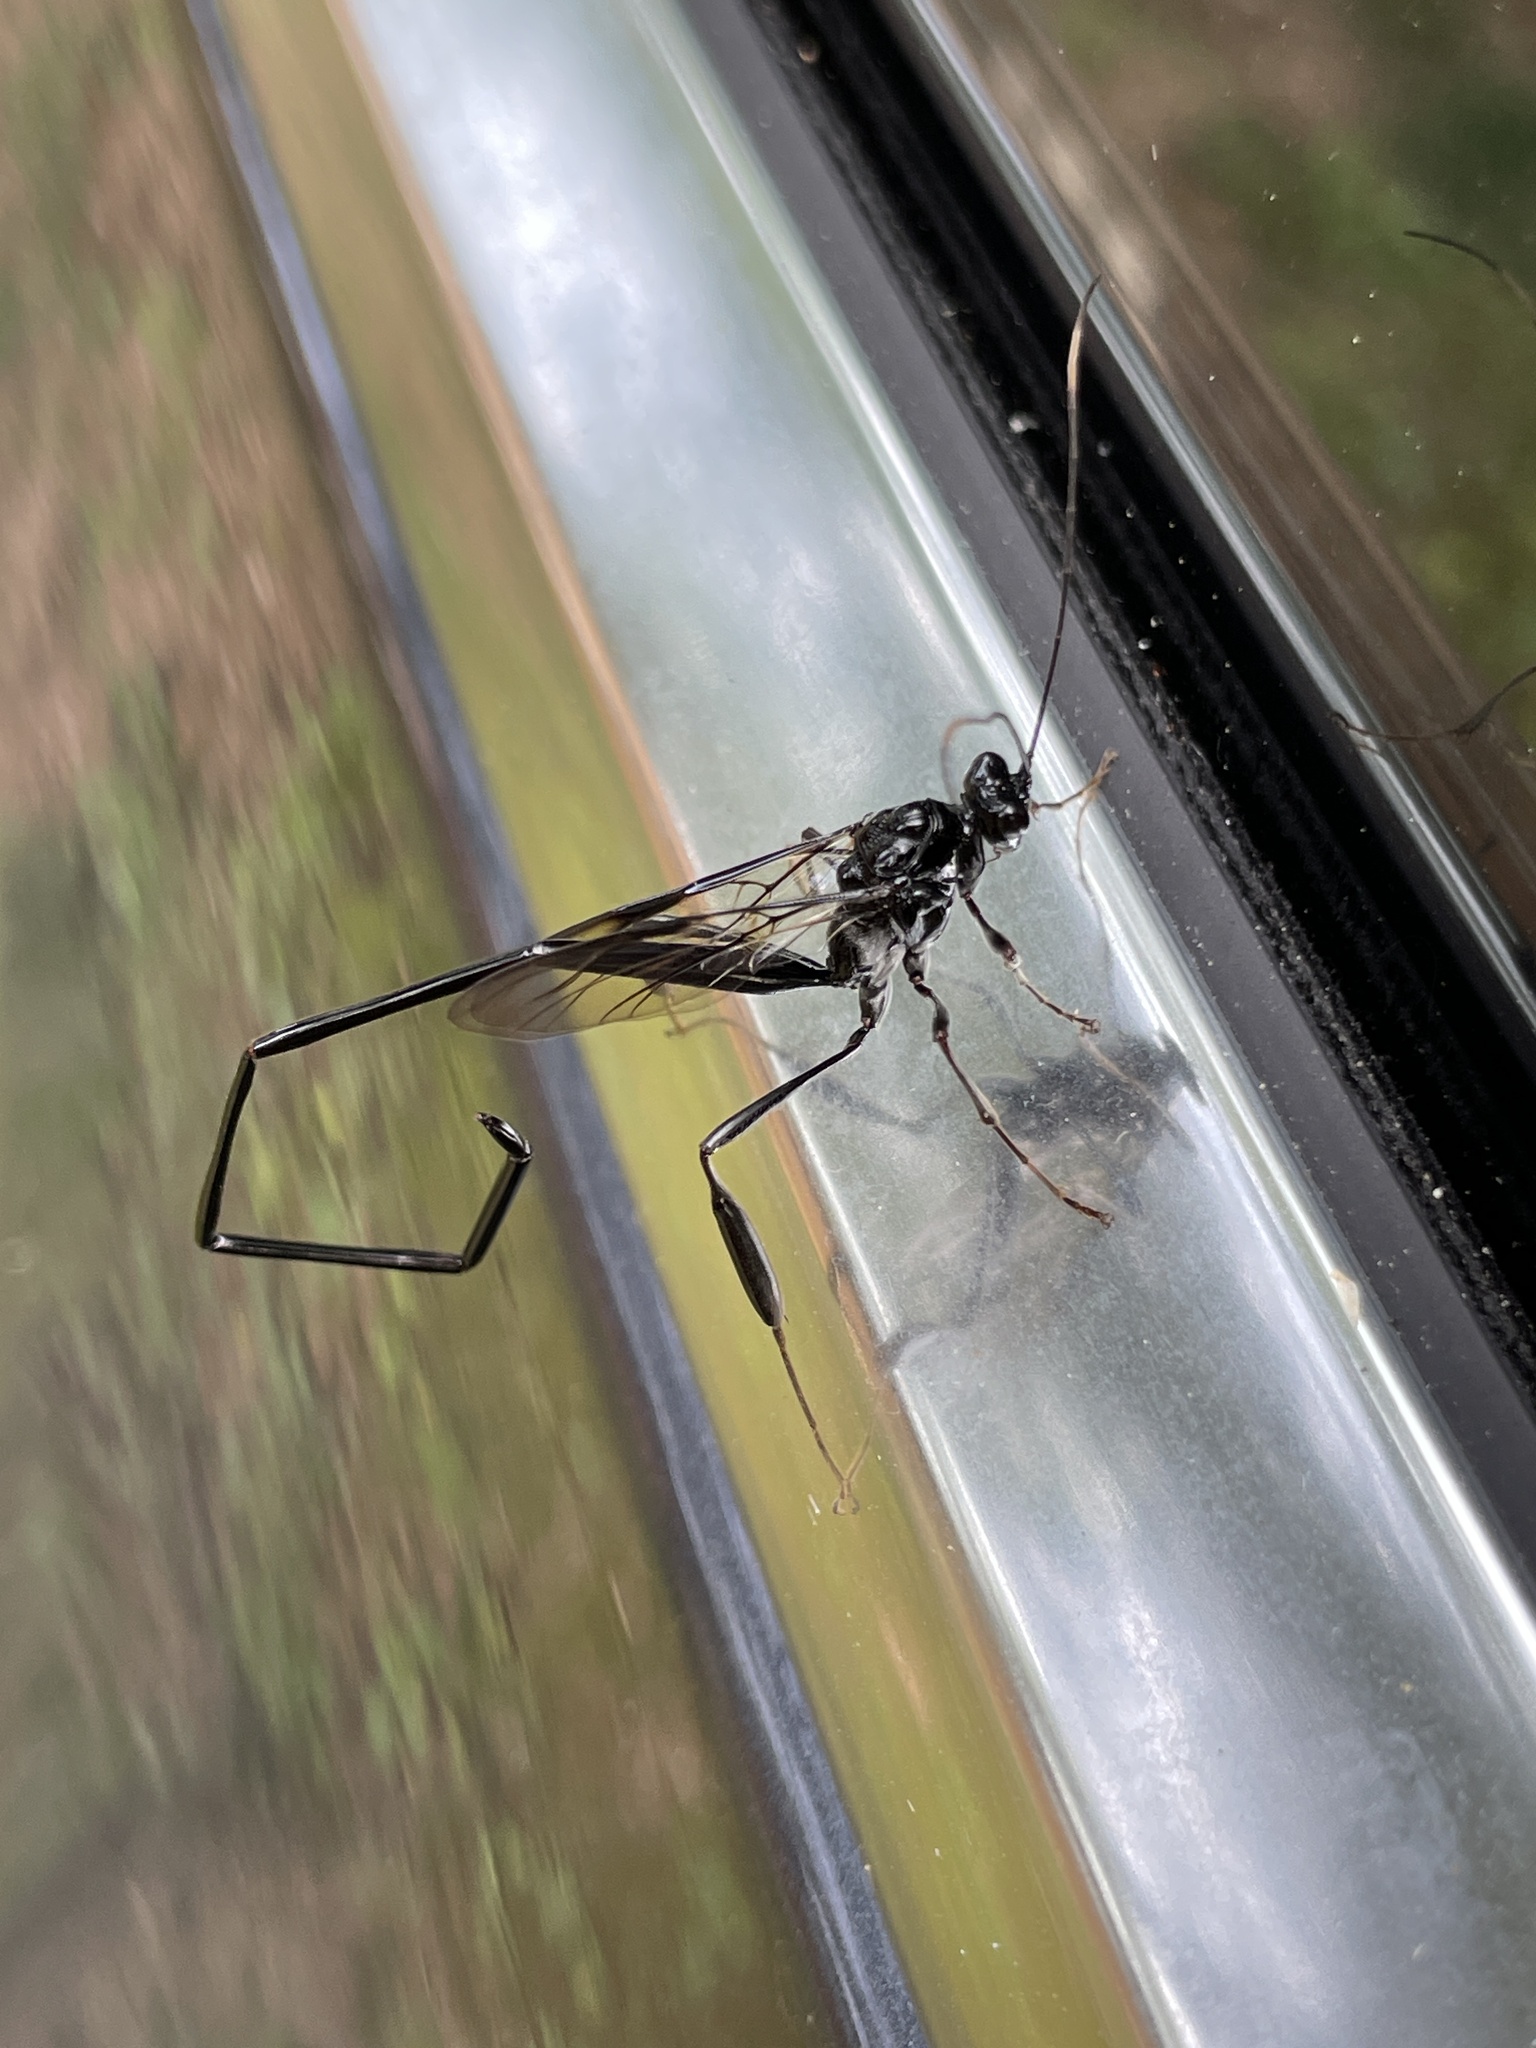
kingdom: Animalia
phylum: Arthropoda
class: Insecta
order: Hymenoptera
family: Pelecinidae
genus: Pelecinus
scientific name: Pelecinus polyturator
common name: American pelecinid wasp
